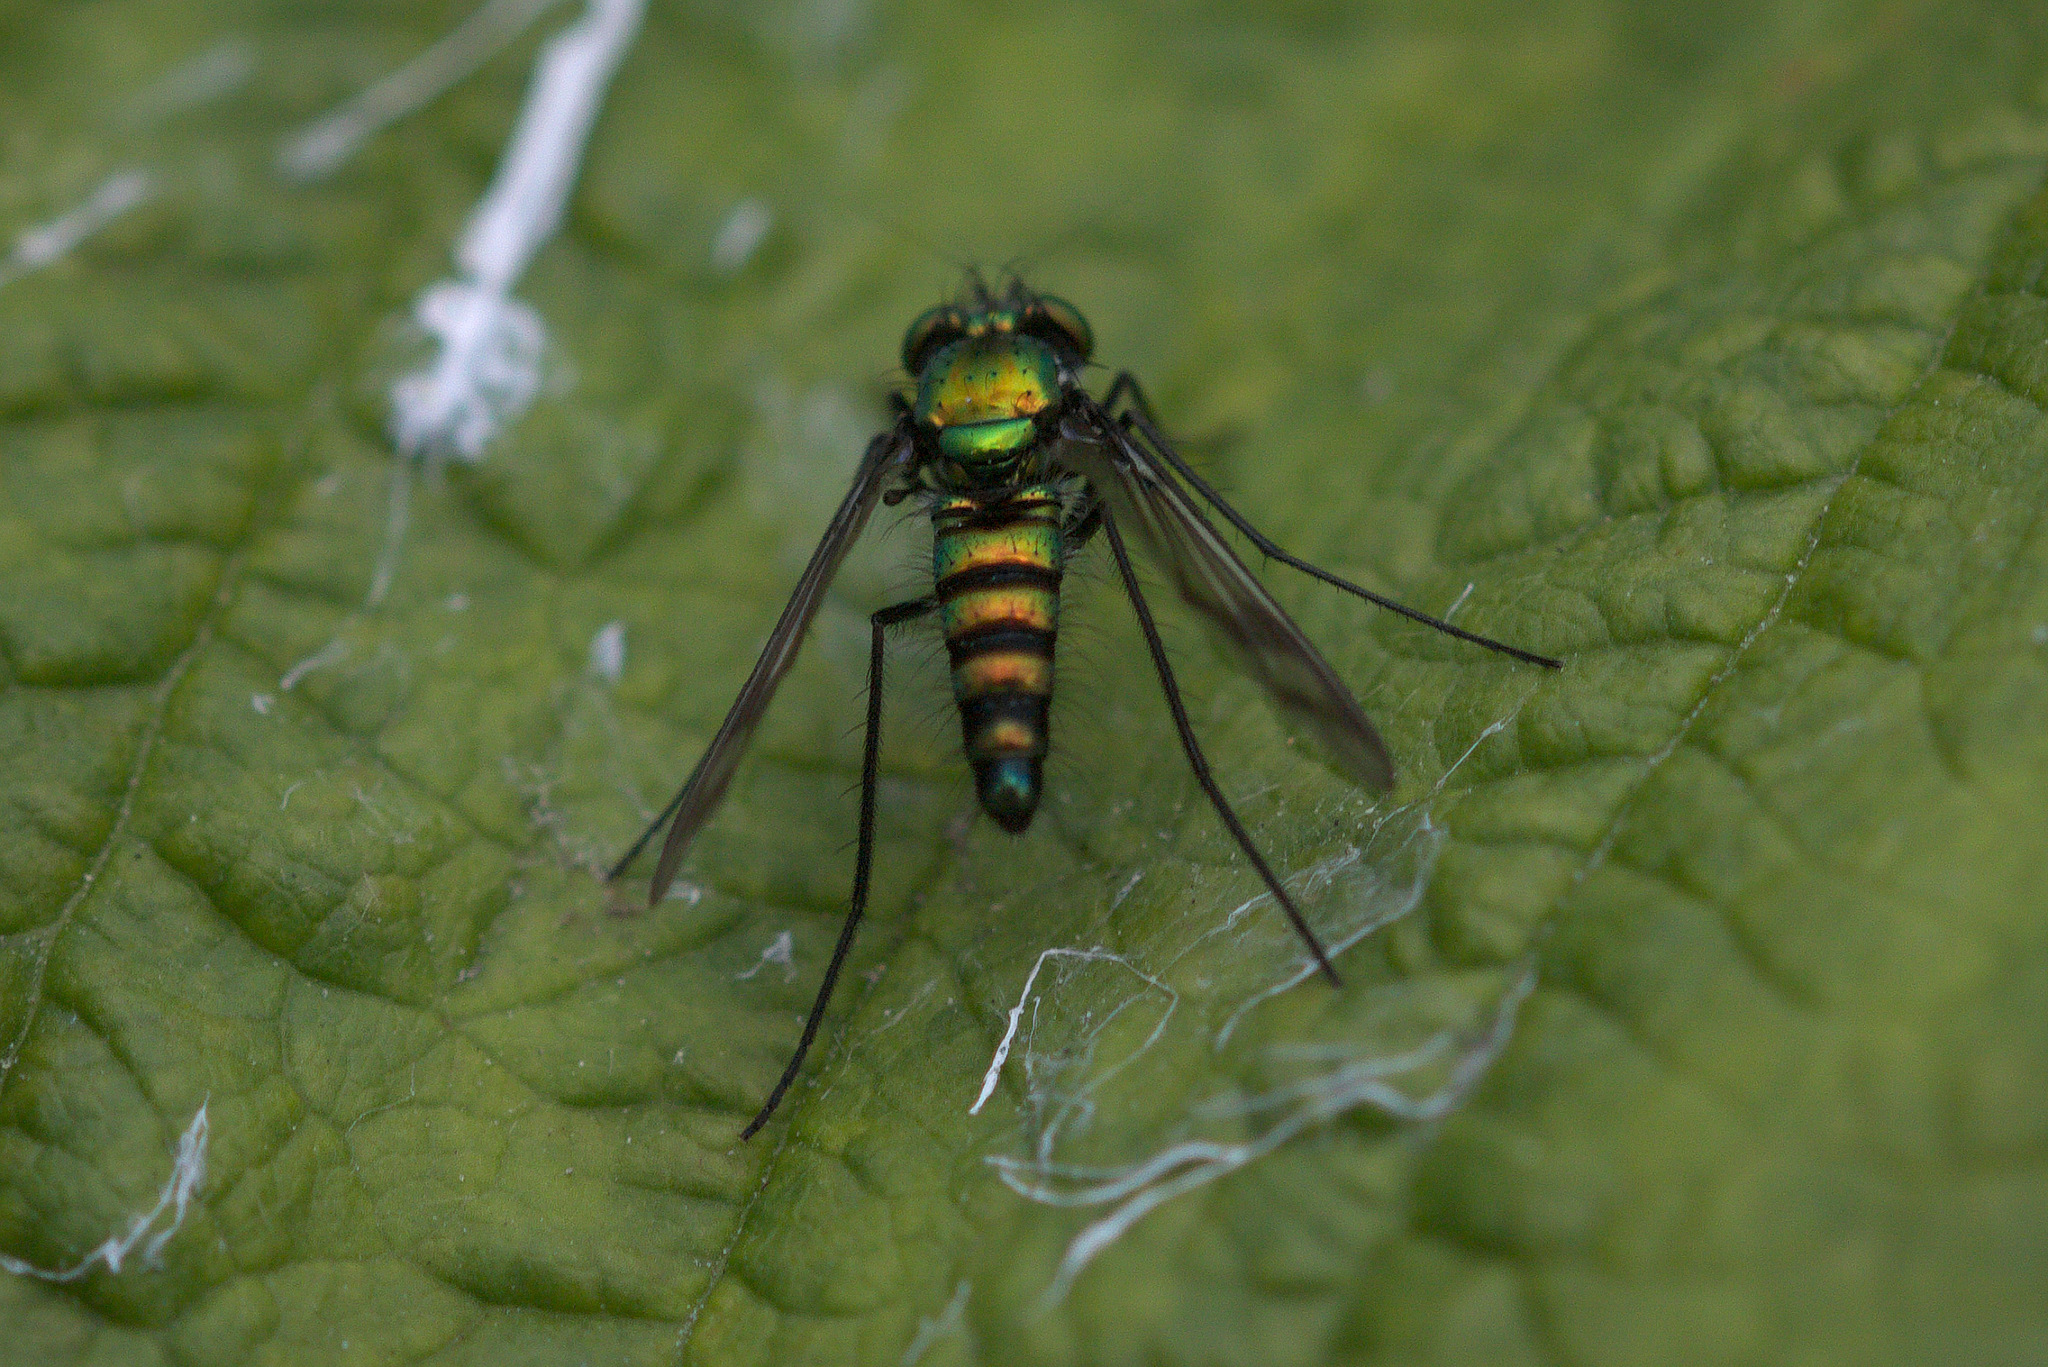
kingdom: Animalia
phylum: Arthropoda
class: Insecta
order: Diptera
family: Dolichopodidae
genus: Condylostylus
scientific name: Condylostylus occidentalis
